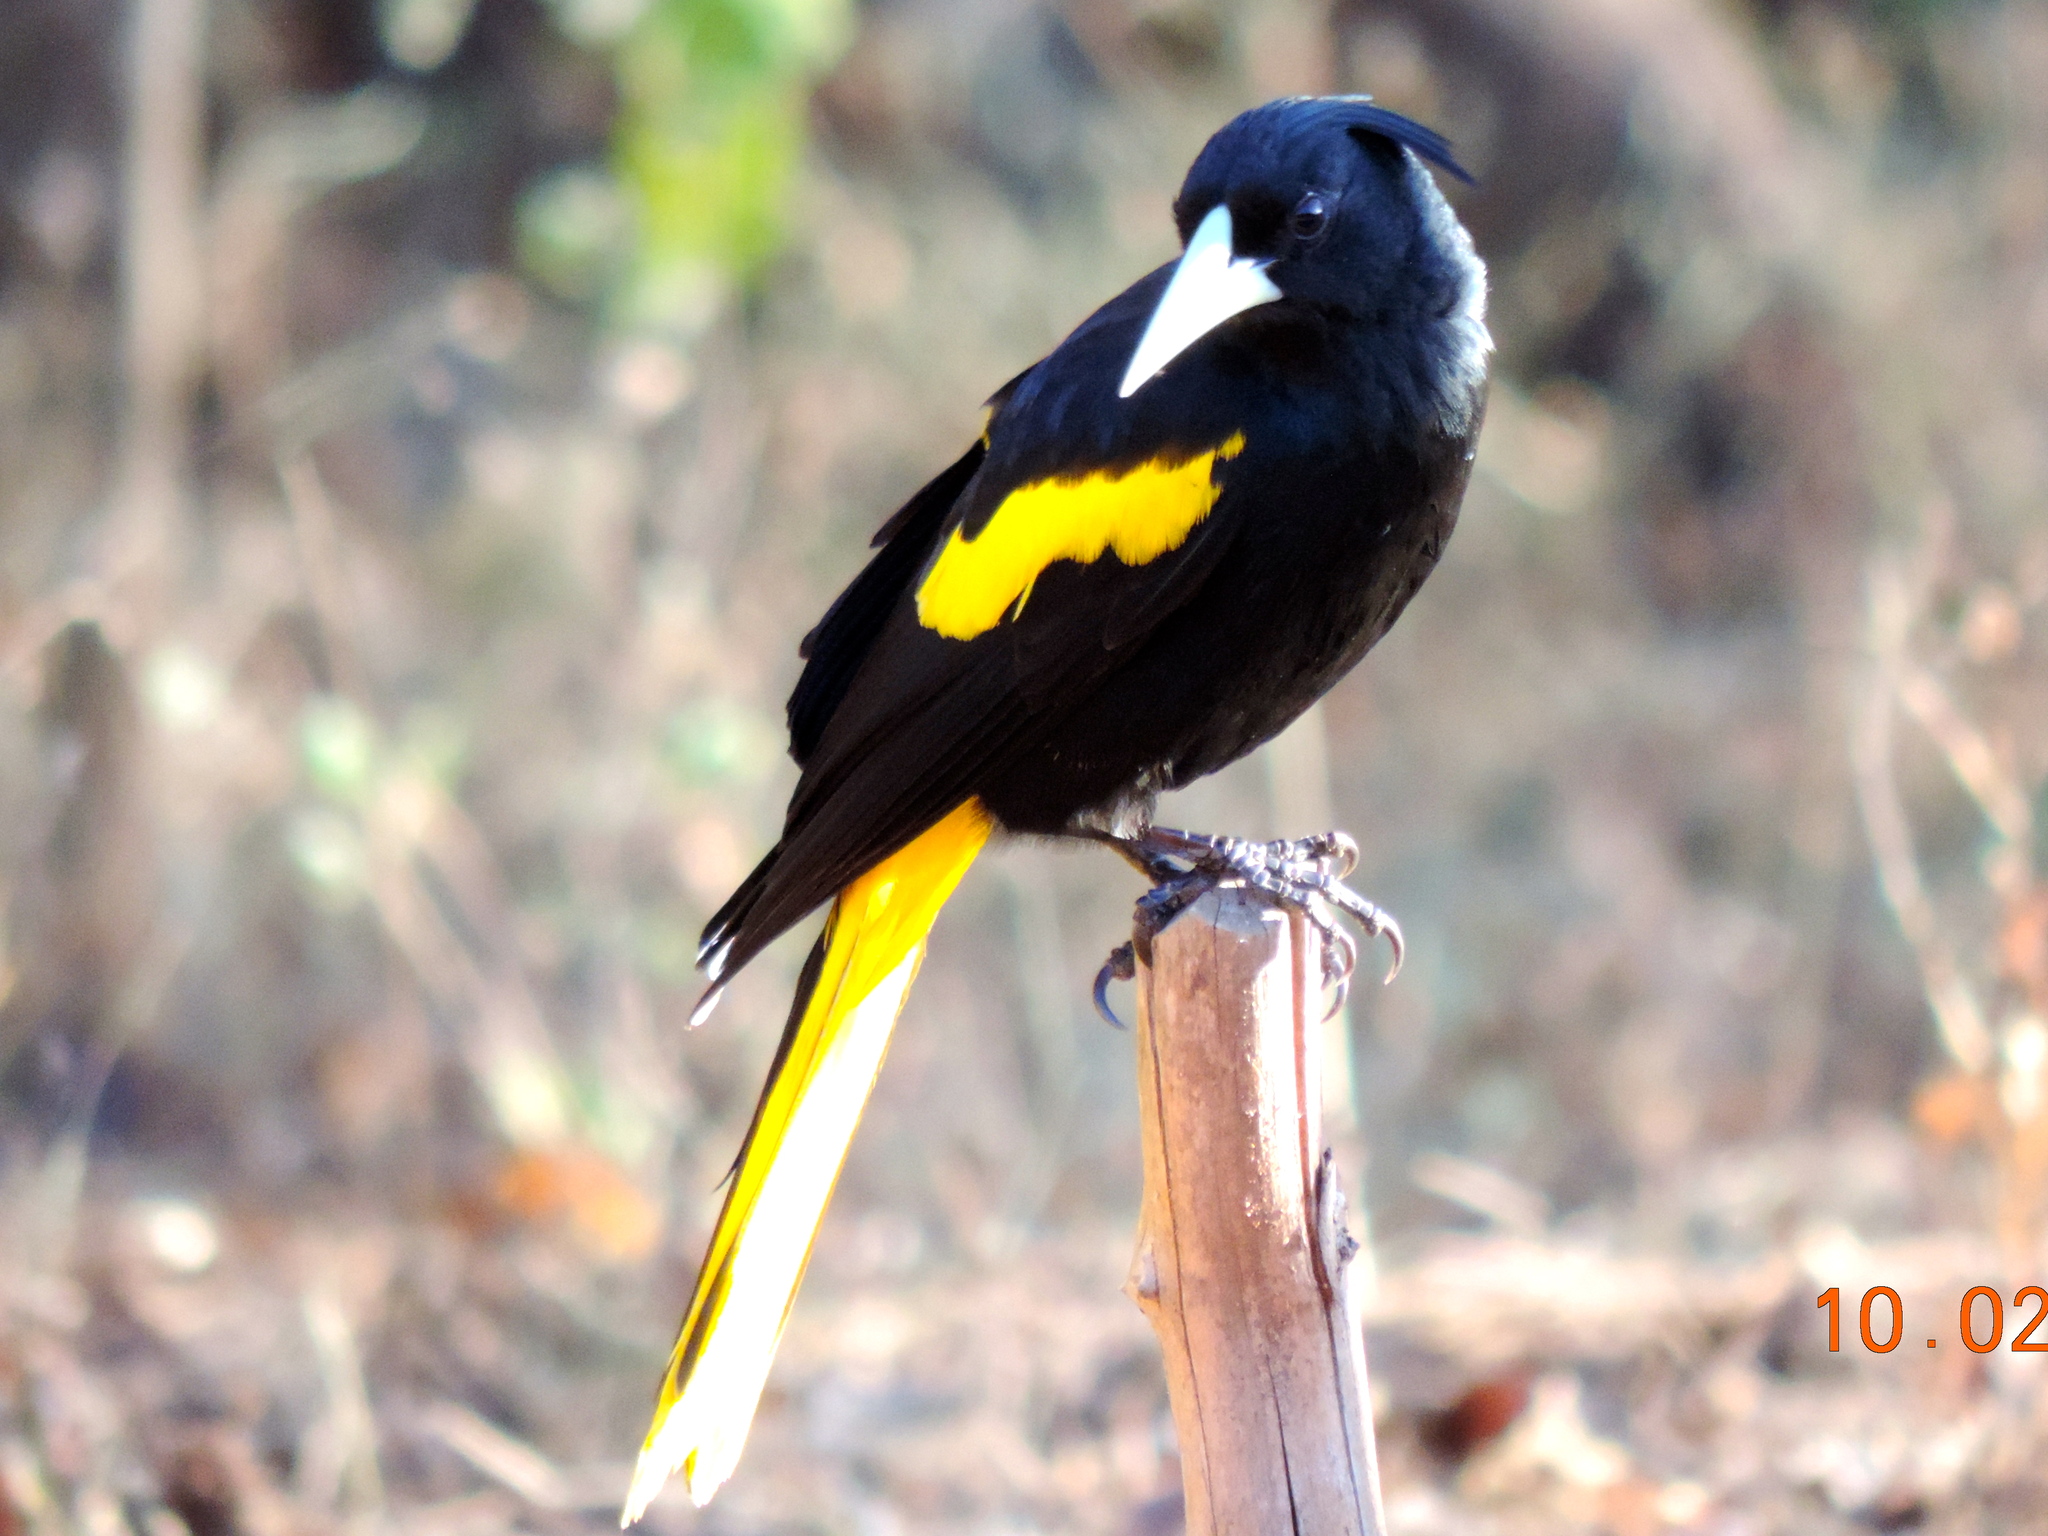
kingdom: Animalia
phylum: Chordata
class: Aves
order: Passeriformes
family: Icteridae
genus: Cacicus
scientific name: Cacicus melanicterus
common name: Yellow-winged cacique
